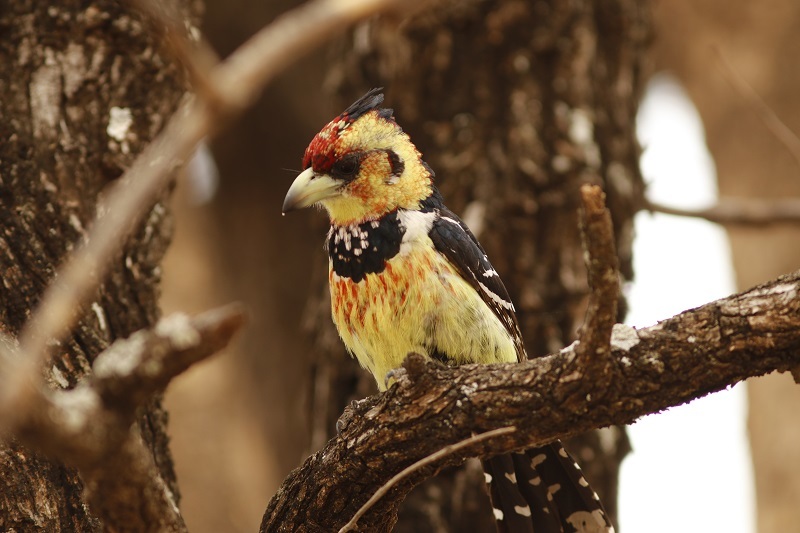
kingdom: Animalia
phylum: Chordata
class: Aves
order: Piciformes
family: Lybiidae
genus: Trachyphonus
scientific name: Trachyphonus vaillantii
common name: Crested barbet
